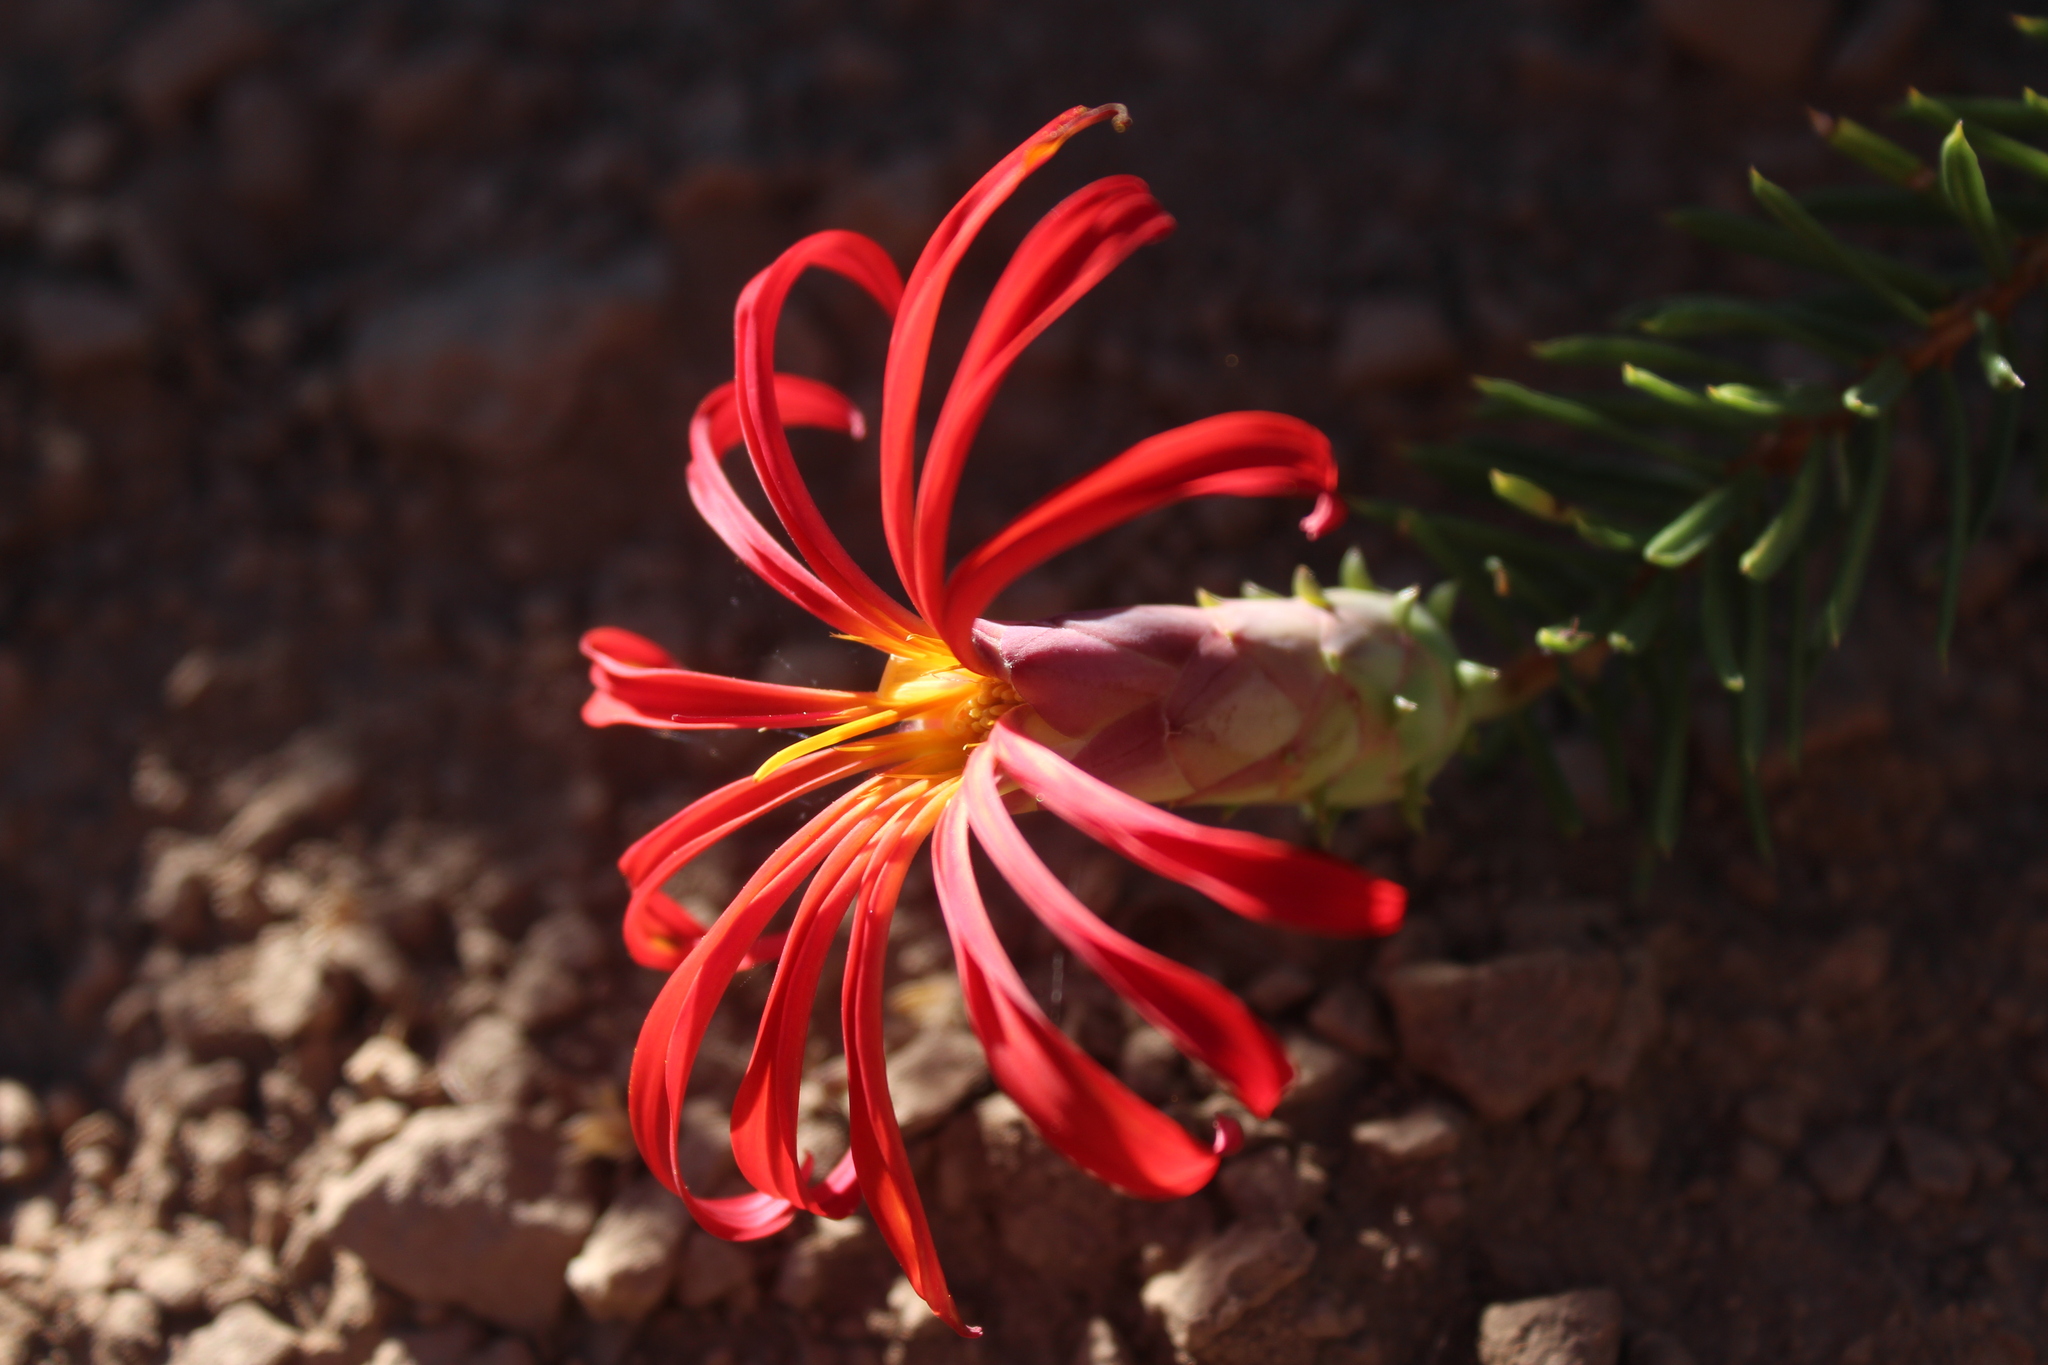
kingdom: Plantae
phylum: Tracheophyta
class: Magnoliopsida
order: Asterales
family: Asteraceae
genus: Mutisia
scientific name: Mutisia subulata
